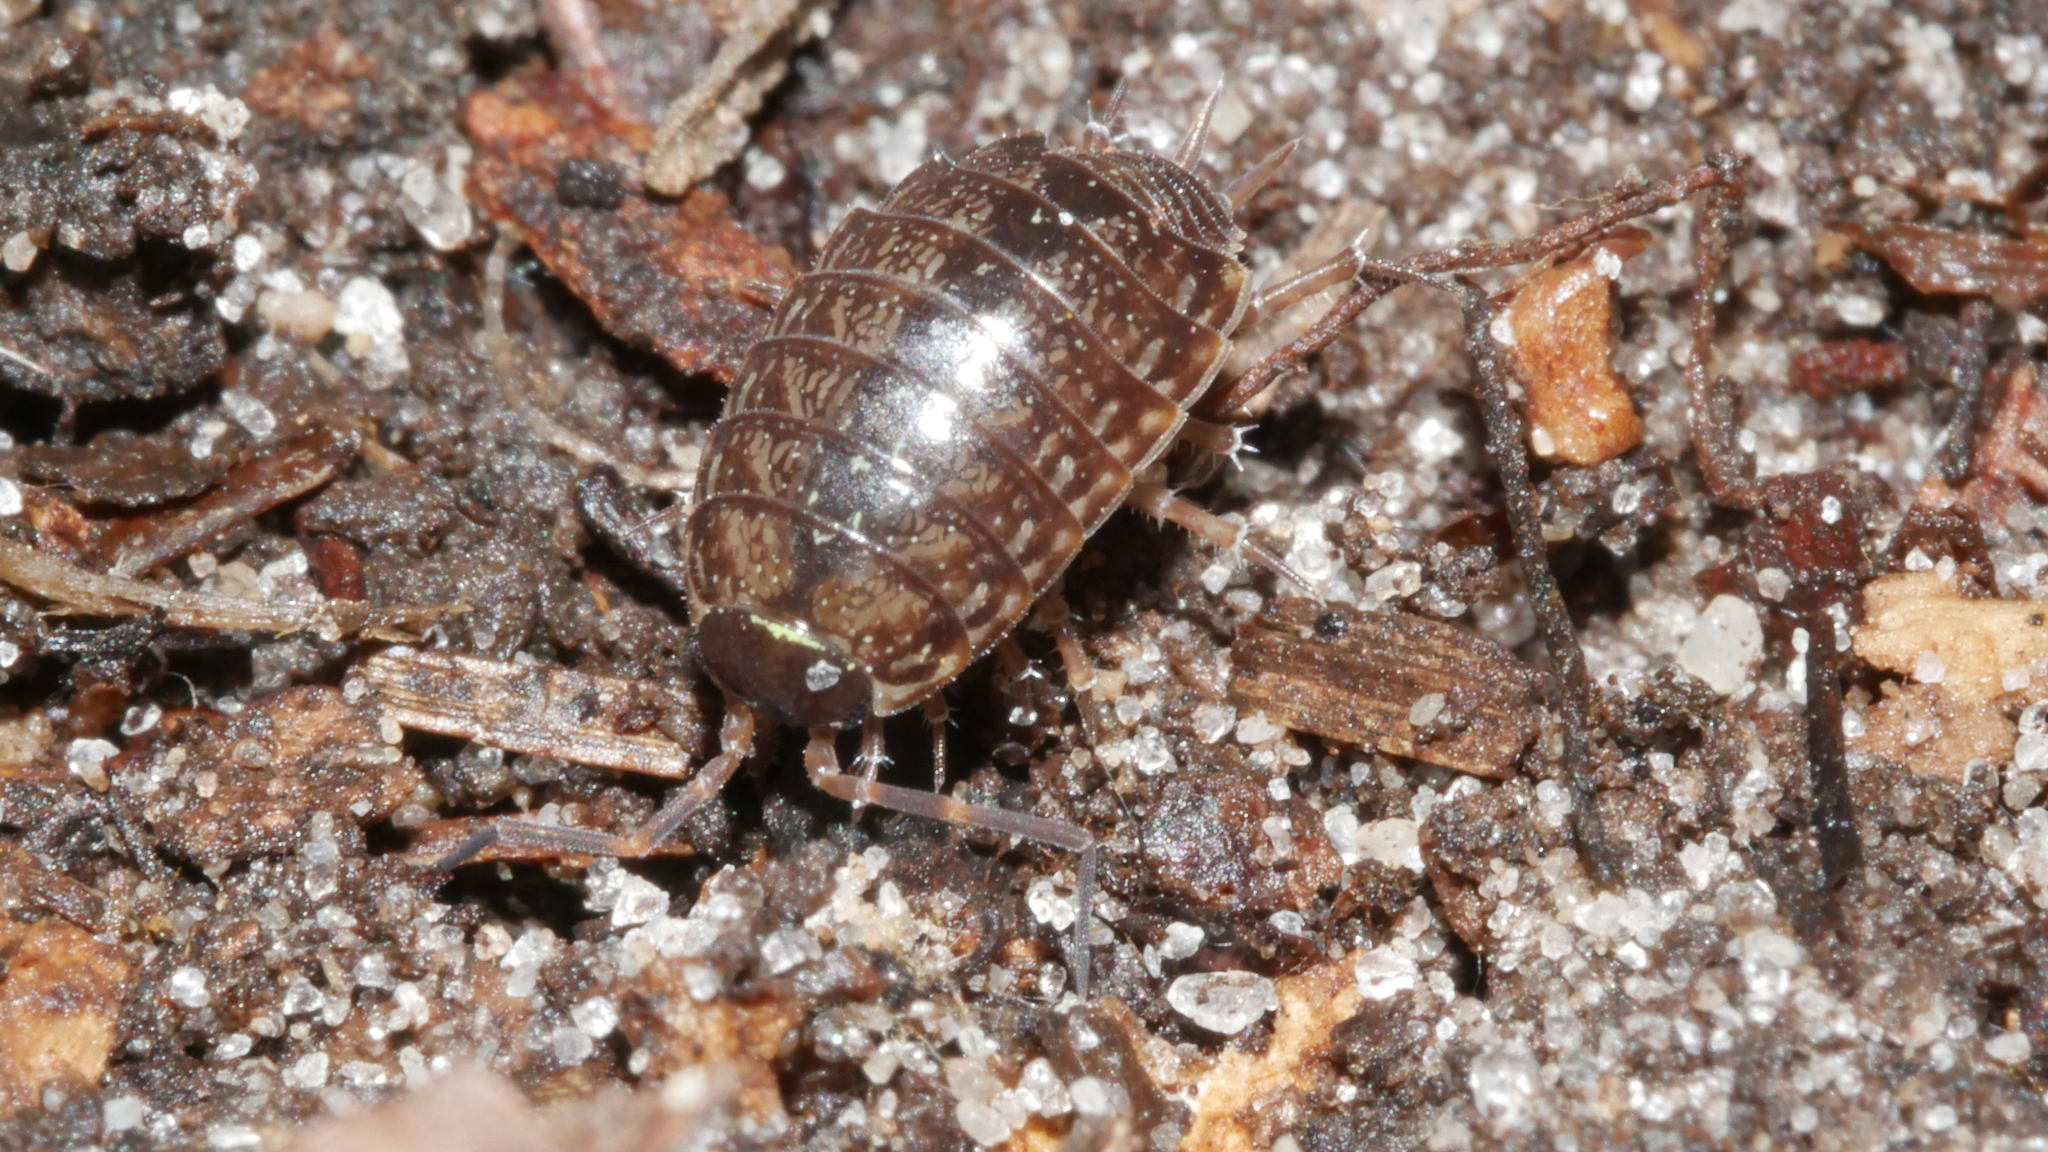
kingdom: Animalia
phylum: Arthropoda
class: Malacostraca
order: Isopoda
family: Philosciidae
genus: Philoscia
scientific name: Philoscia muscorum
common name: Common striped woodlouse
